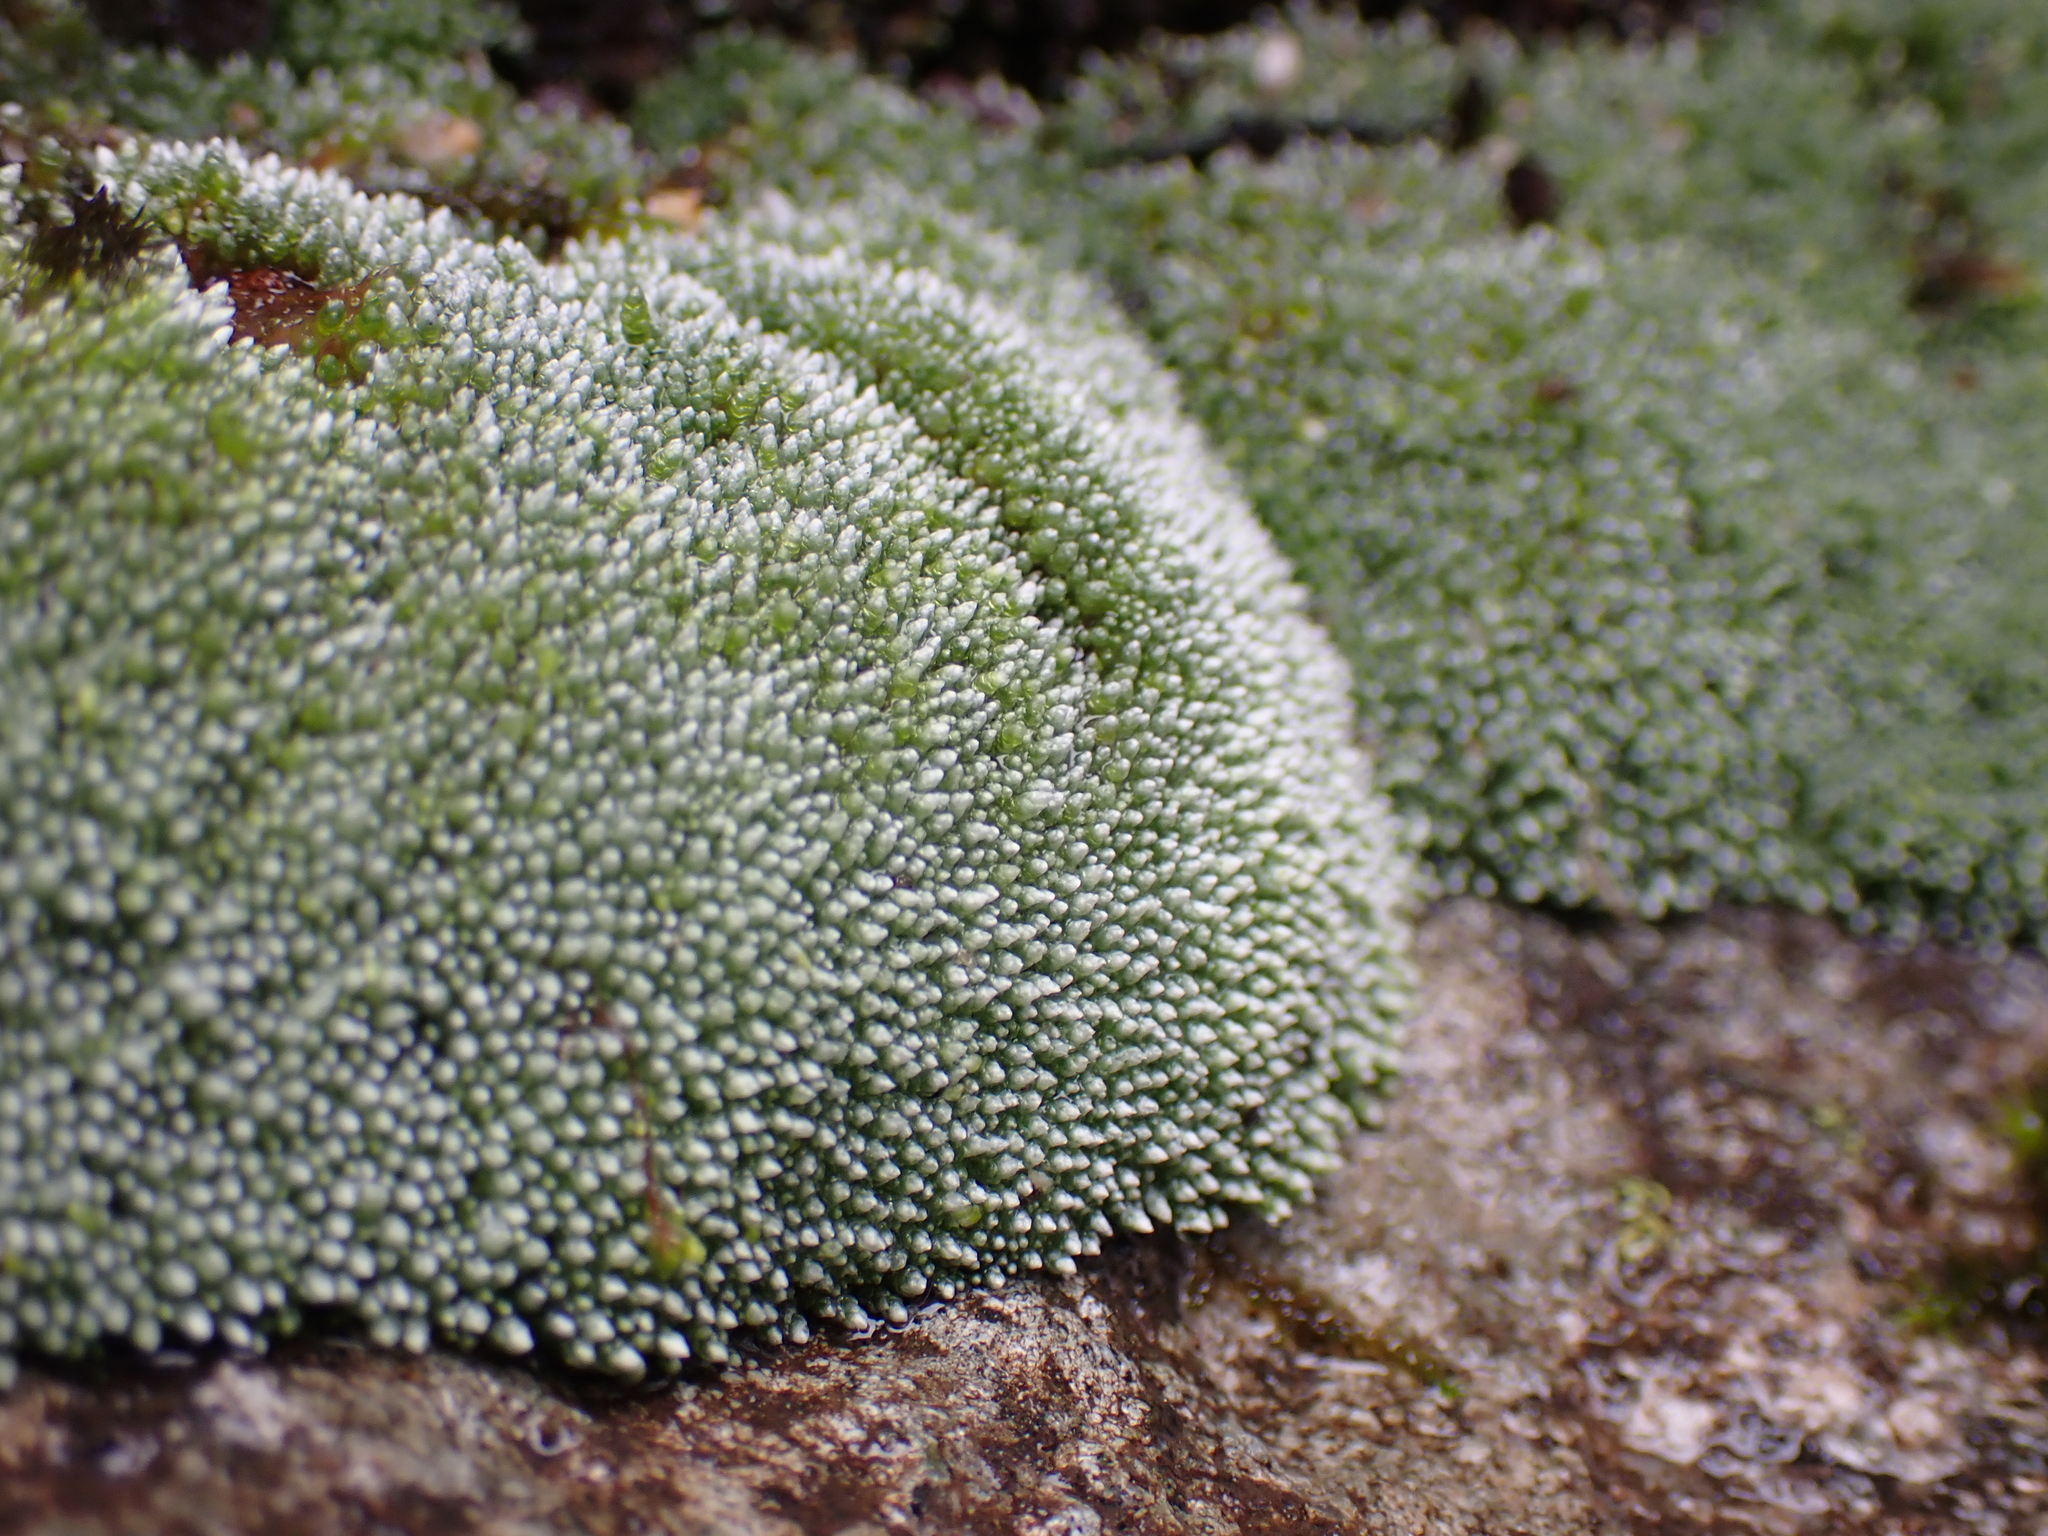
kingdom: Plantae
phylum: Bryophyta
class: Bryopsida
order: Bryales
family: Bryaceae
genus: Bryum
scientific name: Bryum argenteum
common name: Silver-moss
